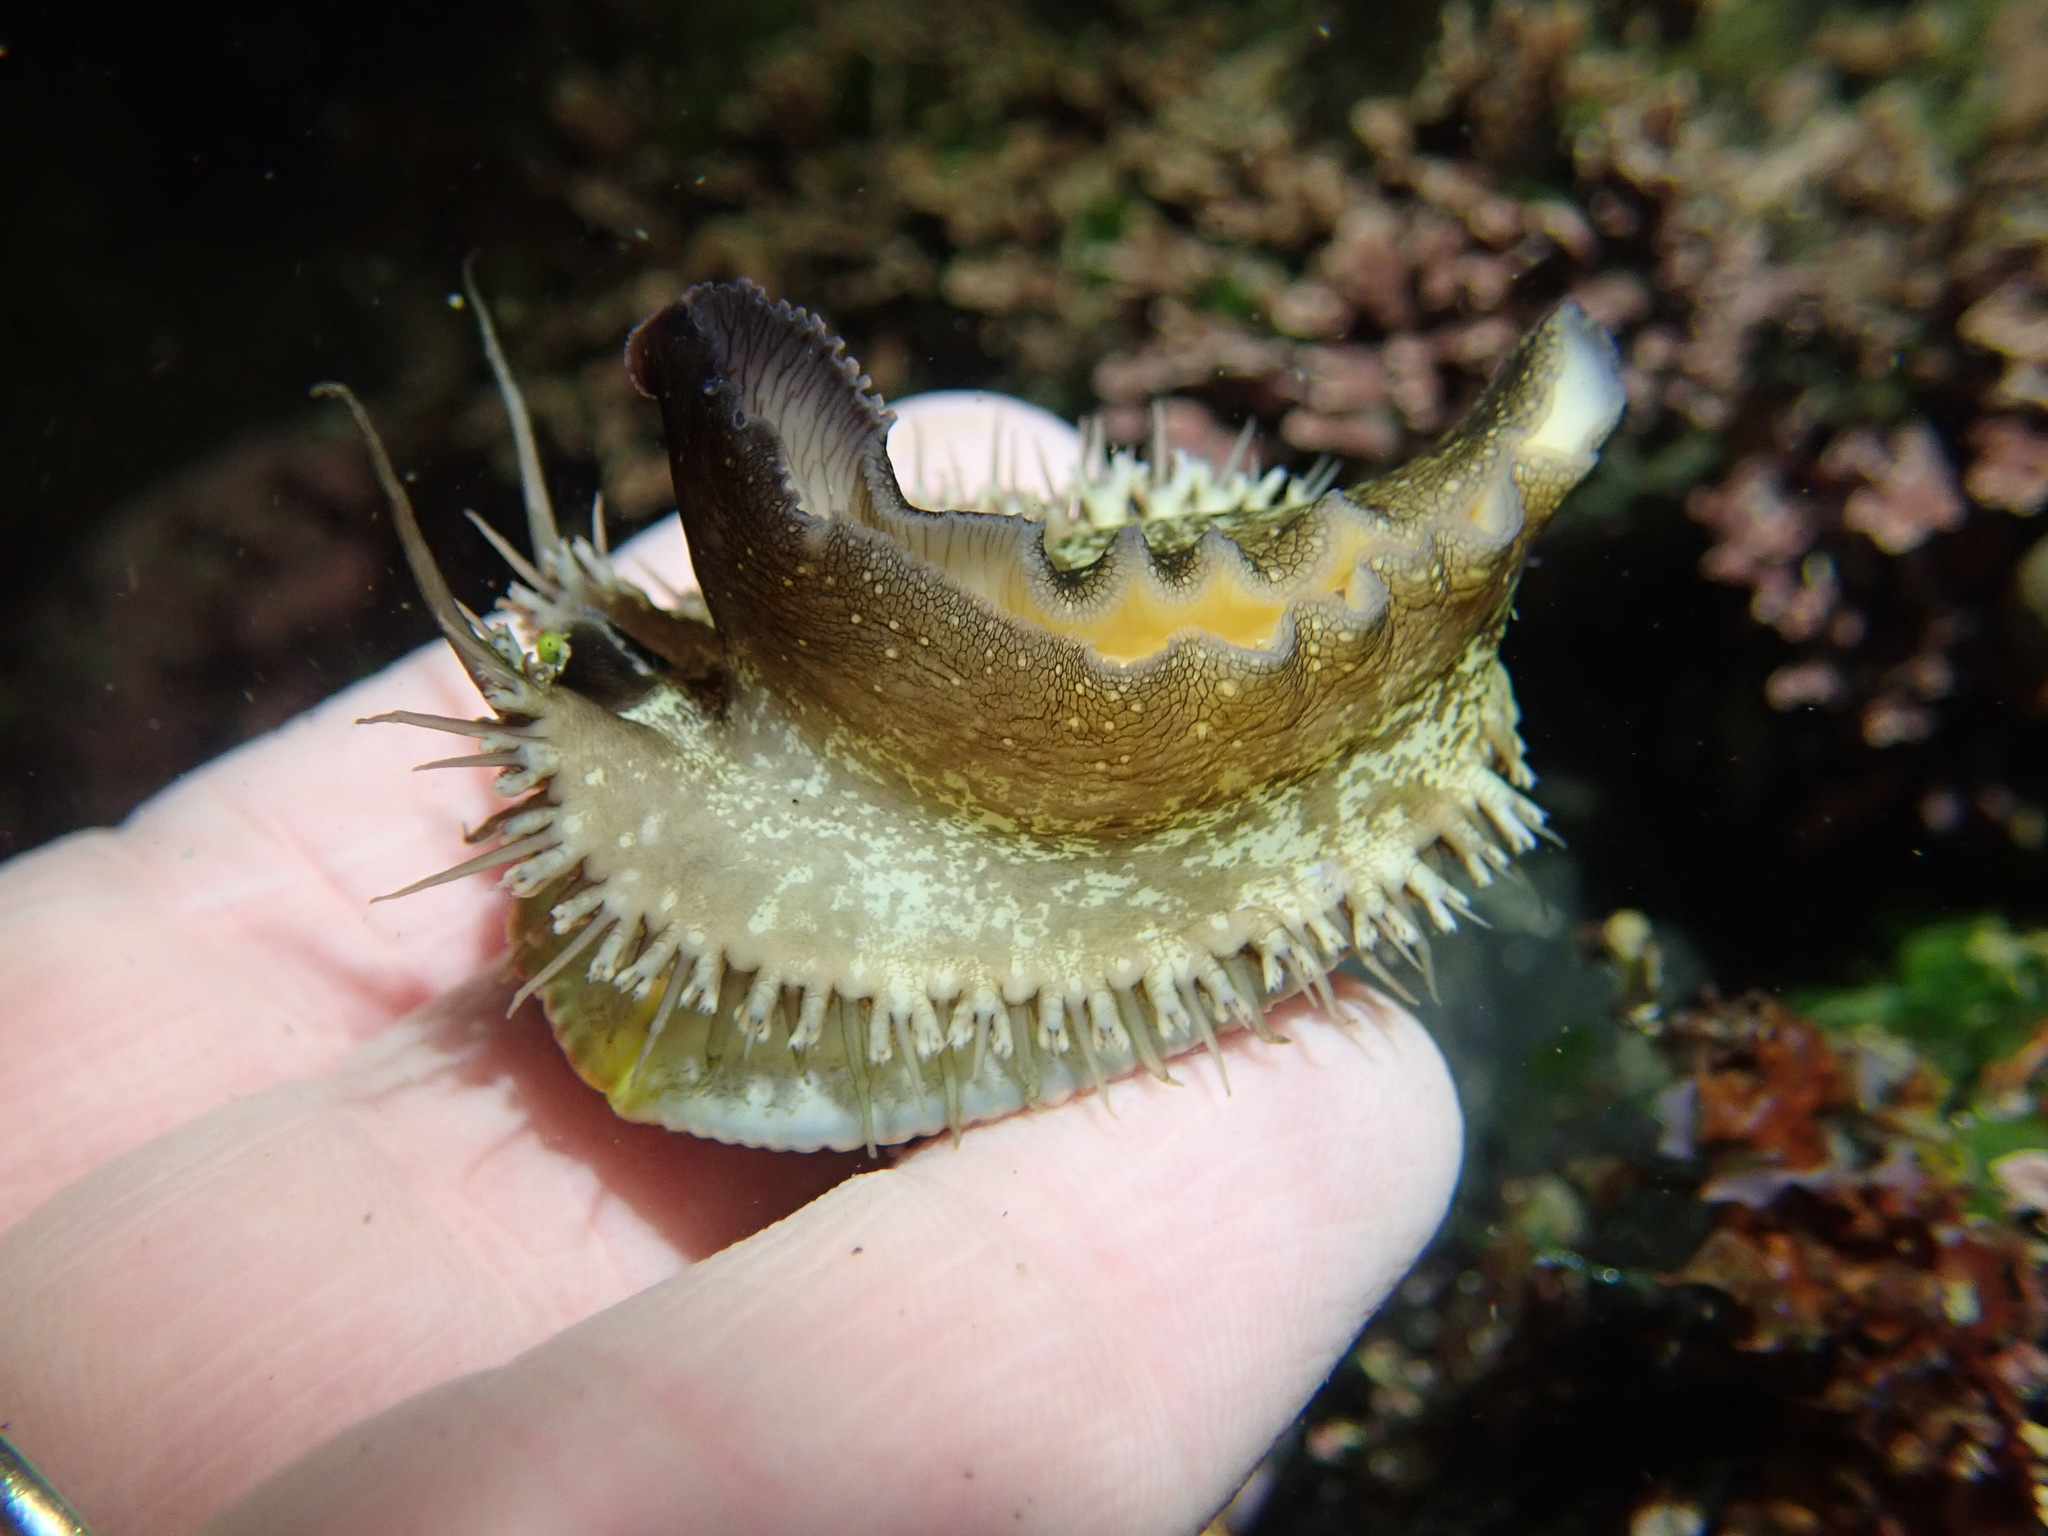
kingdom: Animalia
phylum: Mollusca
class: Gastropoda
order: Lepetellida
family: Haliotidae
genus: Haliotis
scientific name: Haliotis fulgens
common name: Green abalone
